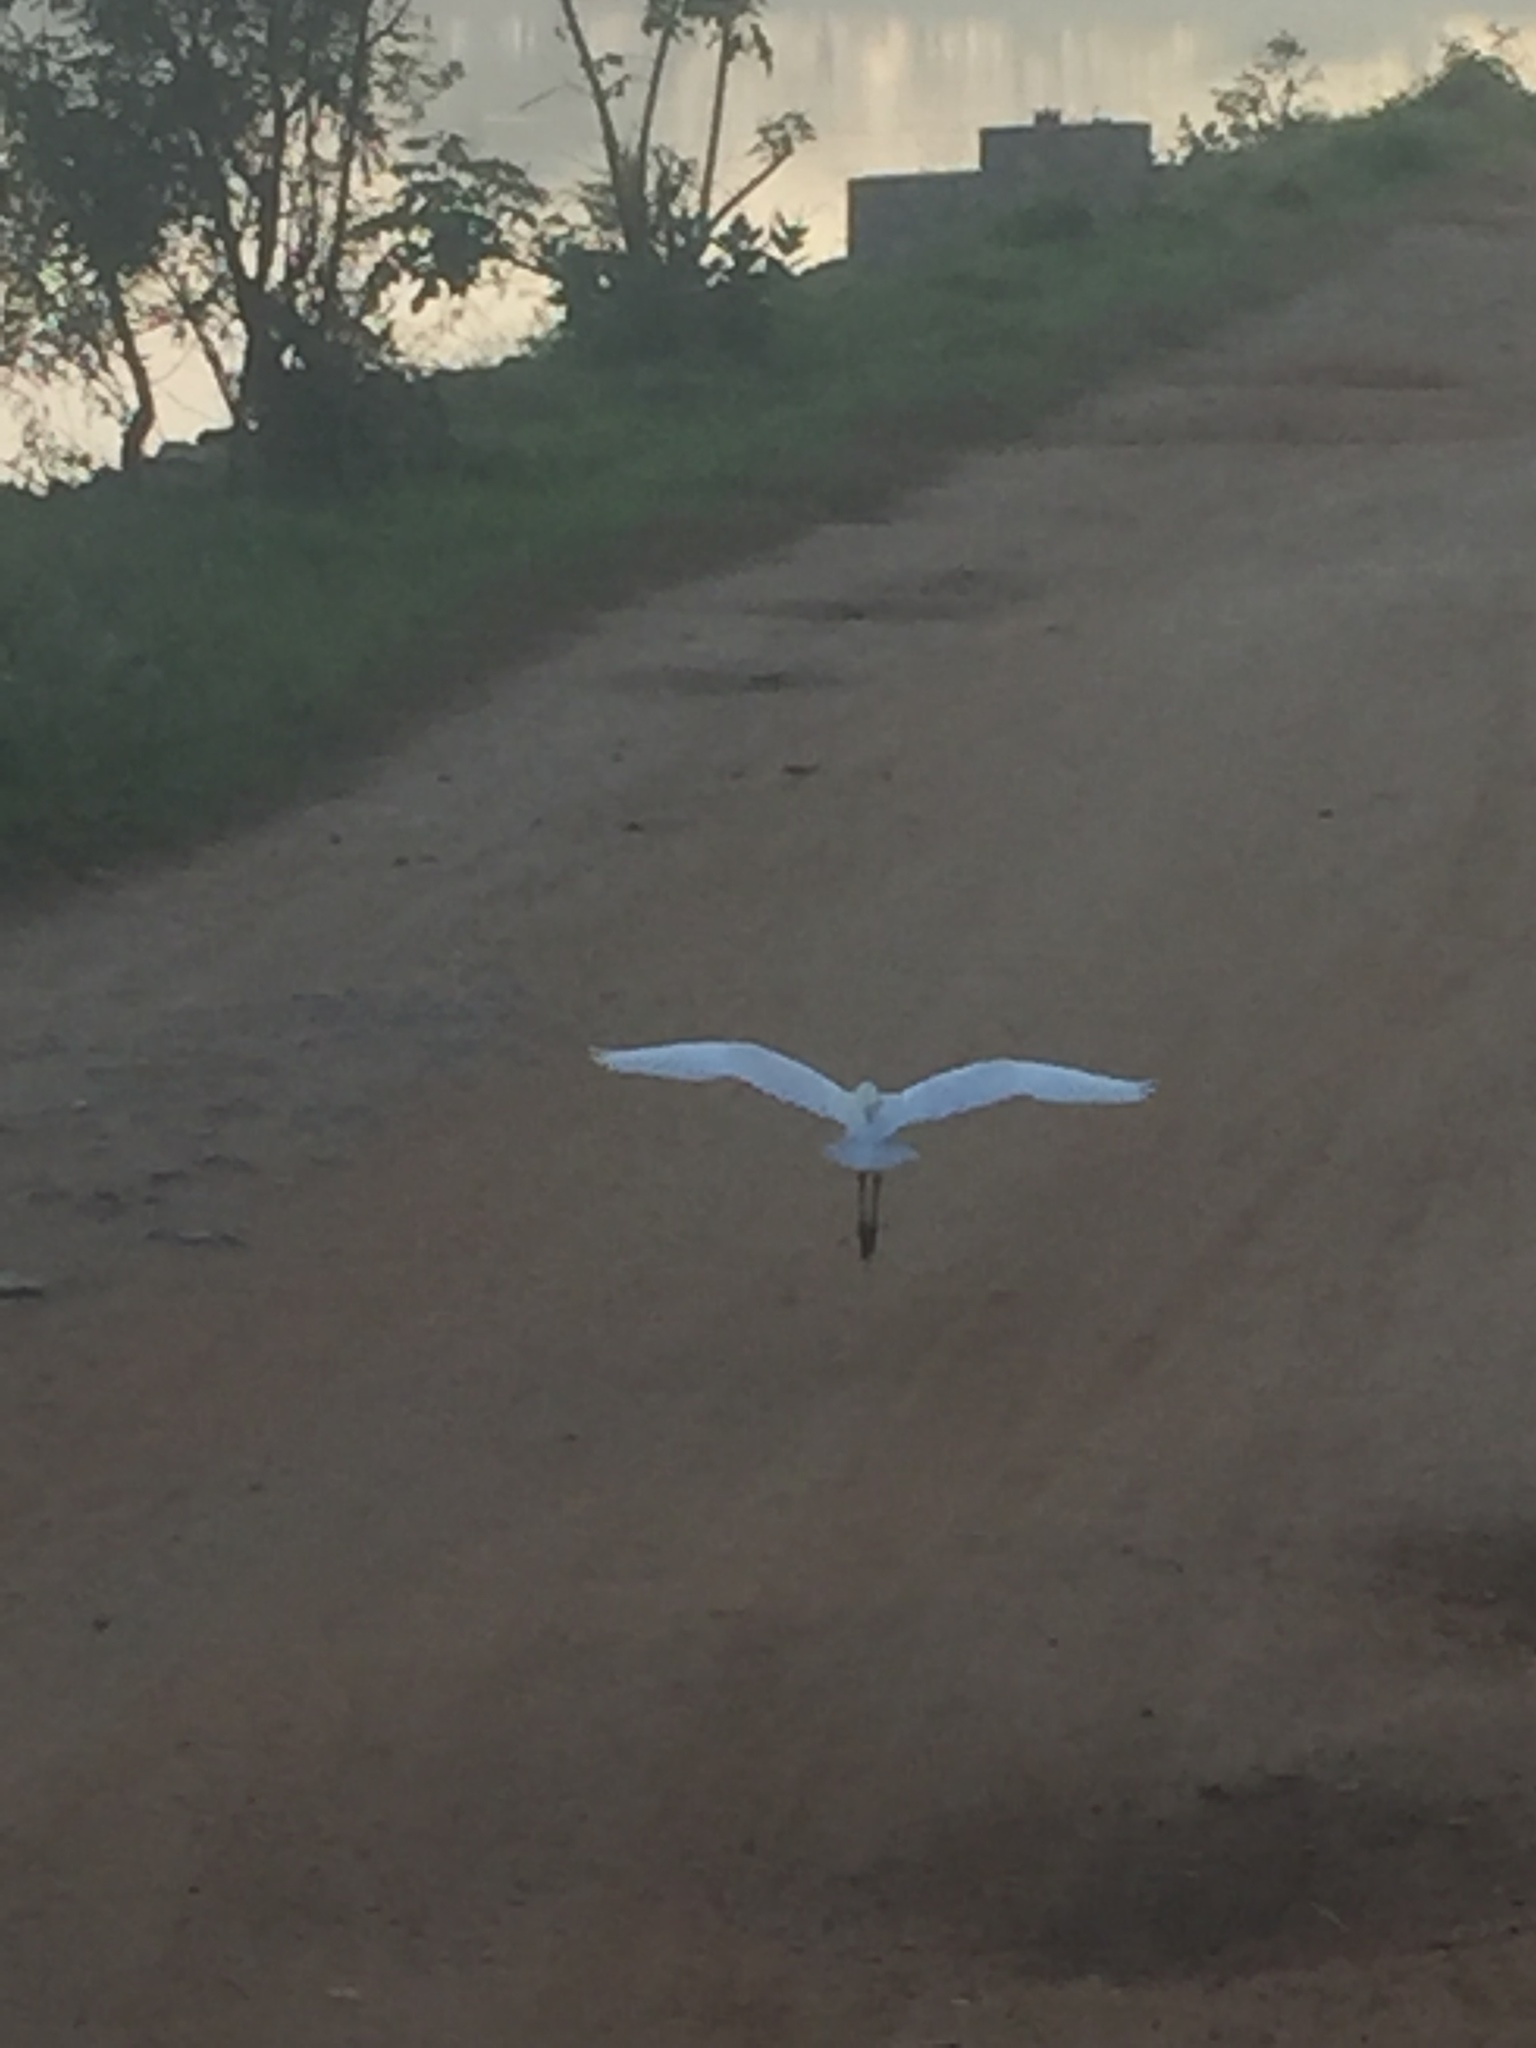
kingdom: Animalia
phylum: Chordata
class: Aves
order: Pelecaniformes
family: Ardeidae
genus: Bubulcus
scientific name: Bubulcus coromandus
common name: Eastern cattle egret
